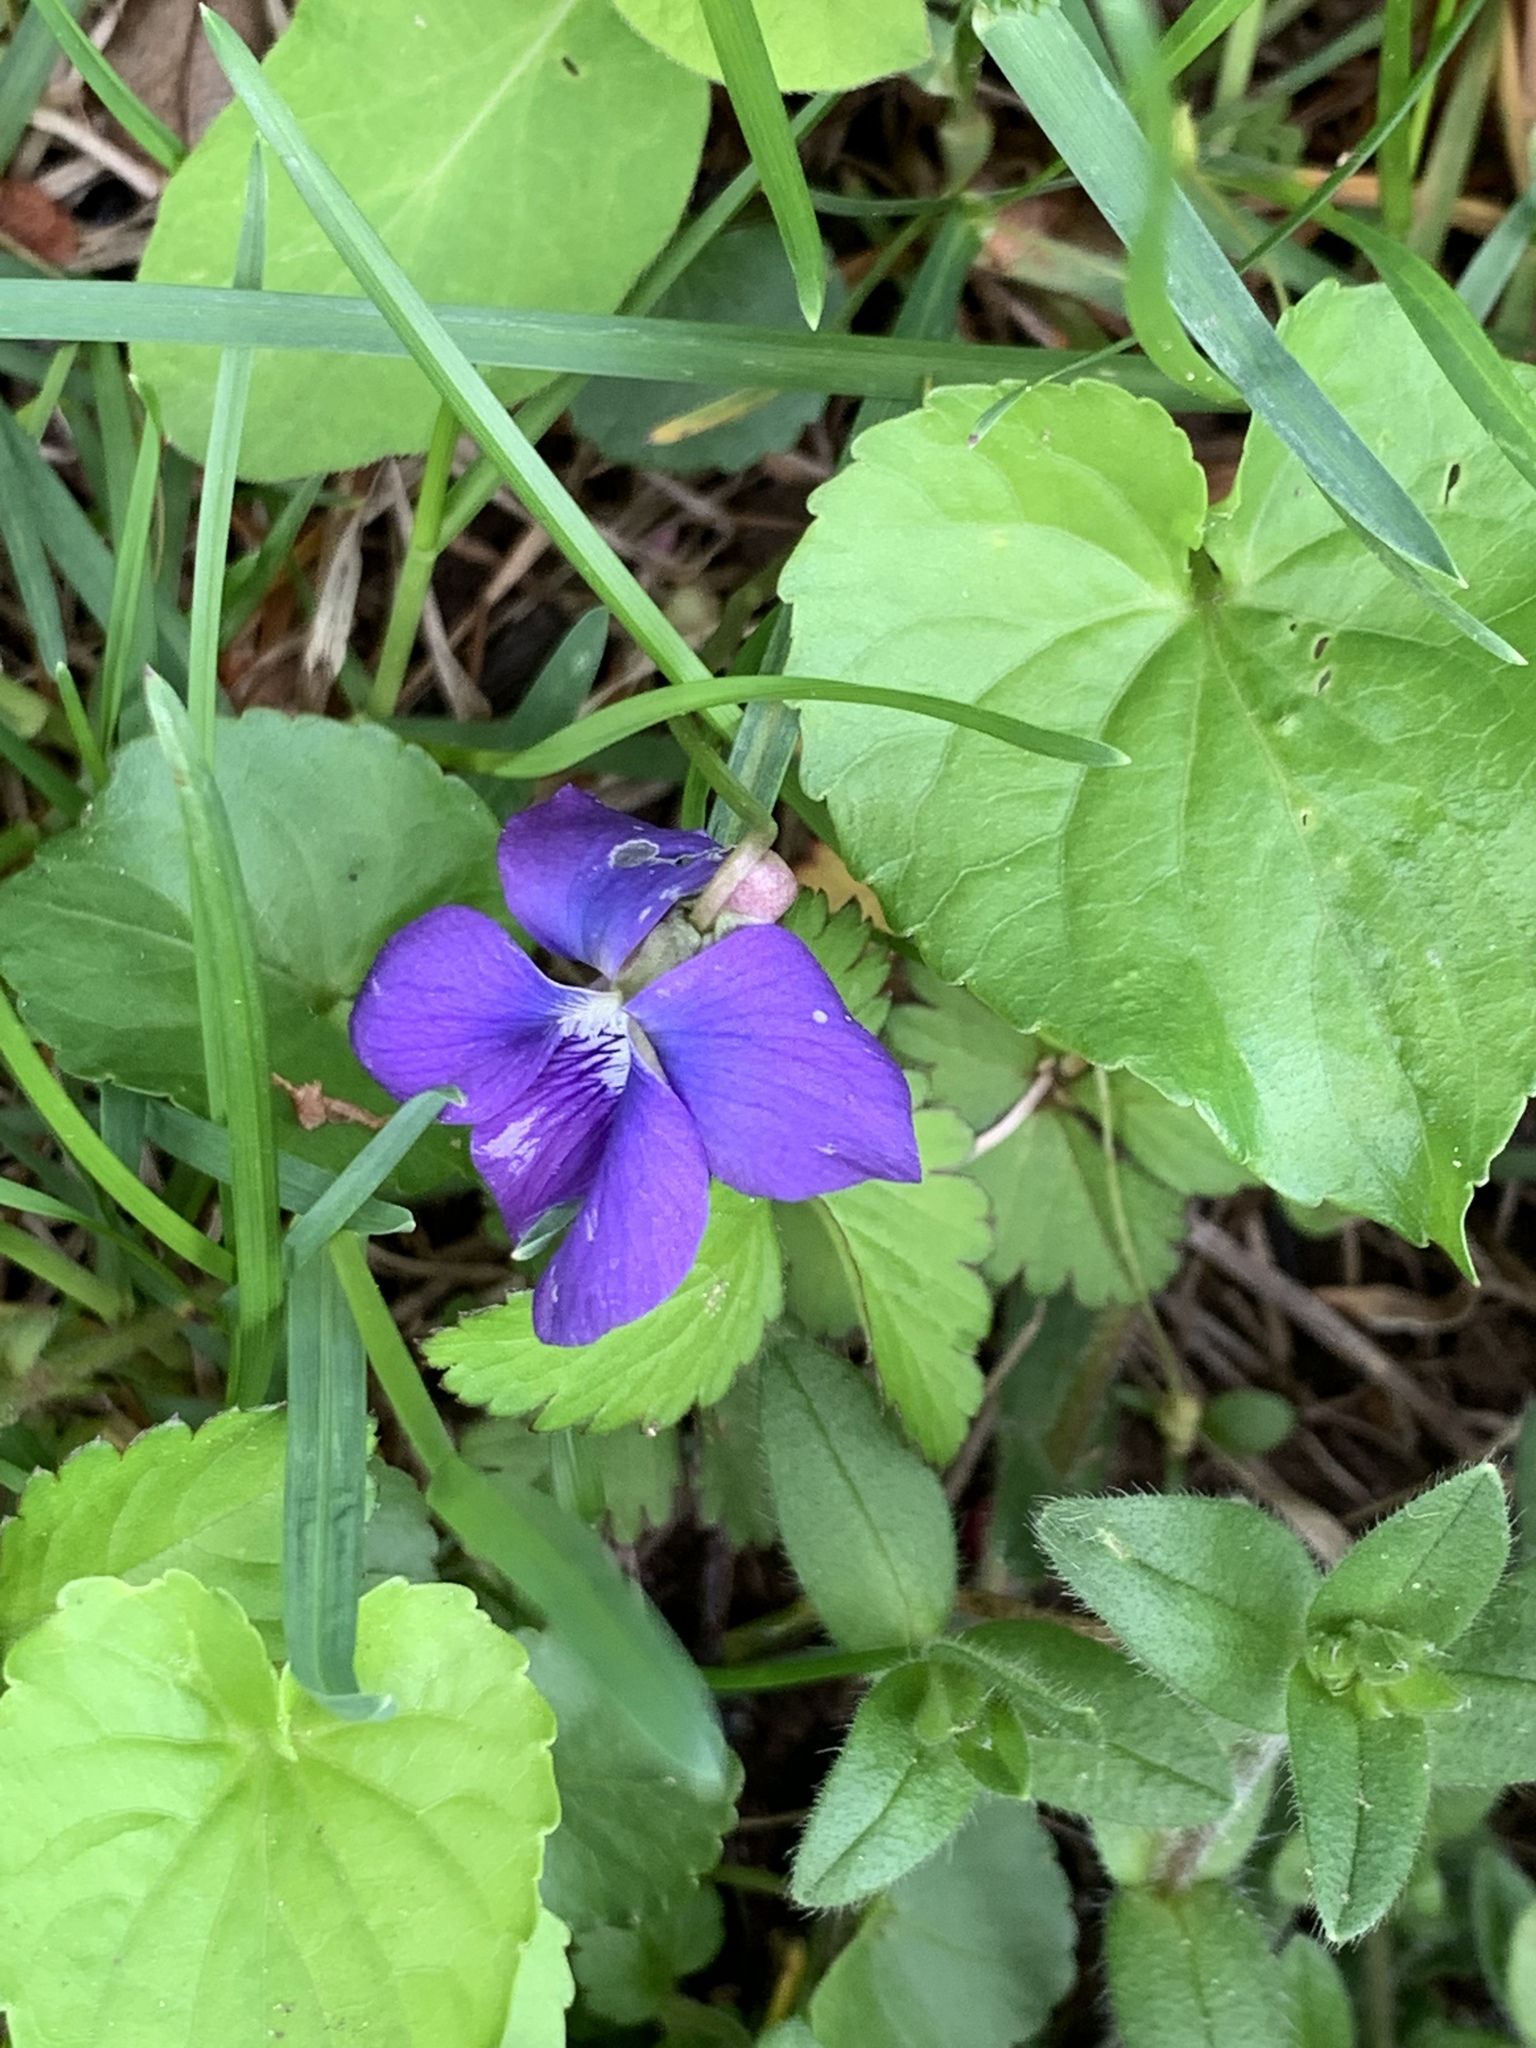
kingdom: Plantae
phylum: Tracheophyta
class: Magnoliopsida
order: Malpighiales
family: Violaceae
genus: Viola
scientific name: Viola sororia
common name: Dooryard violet
